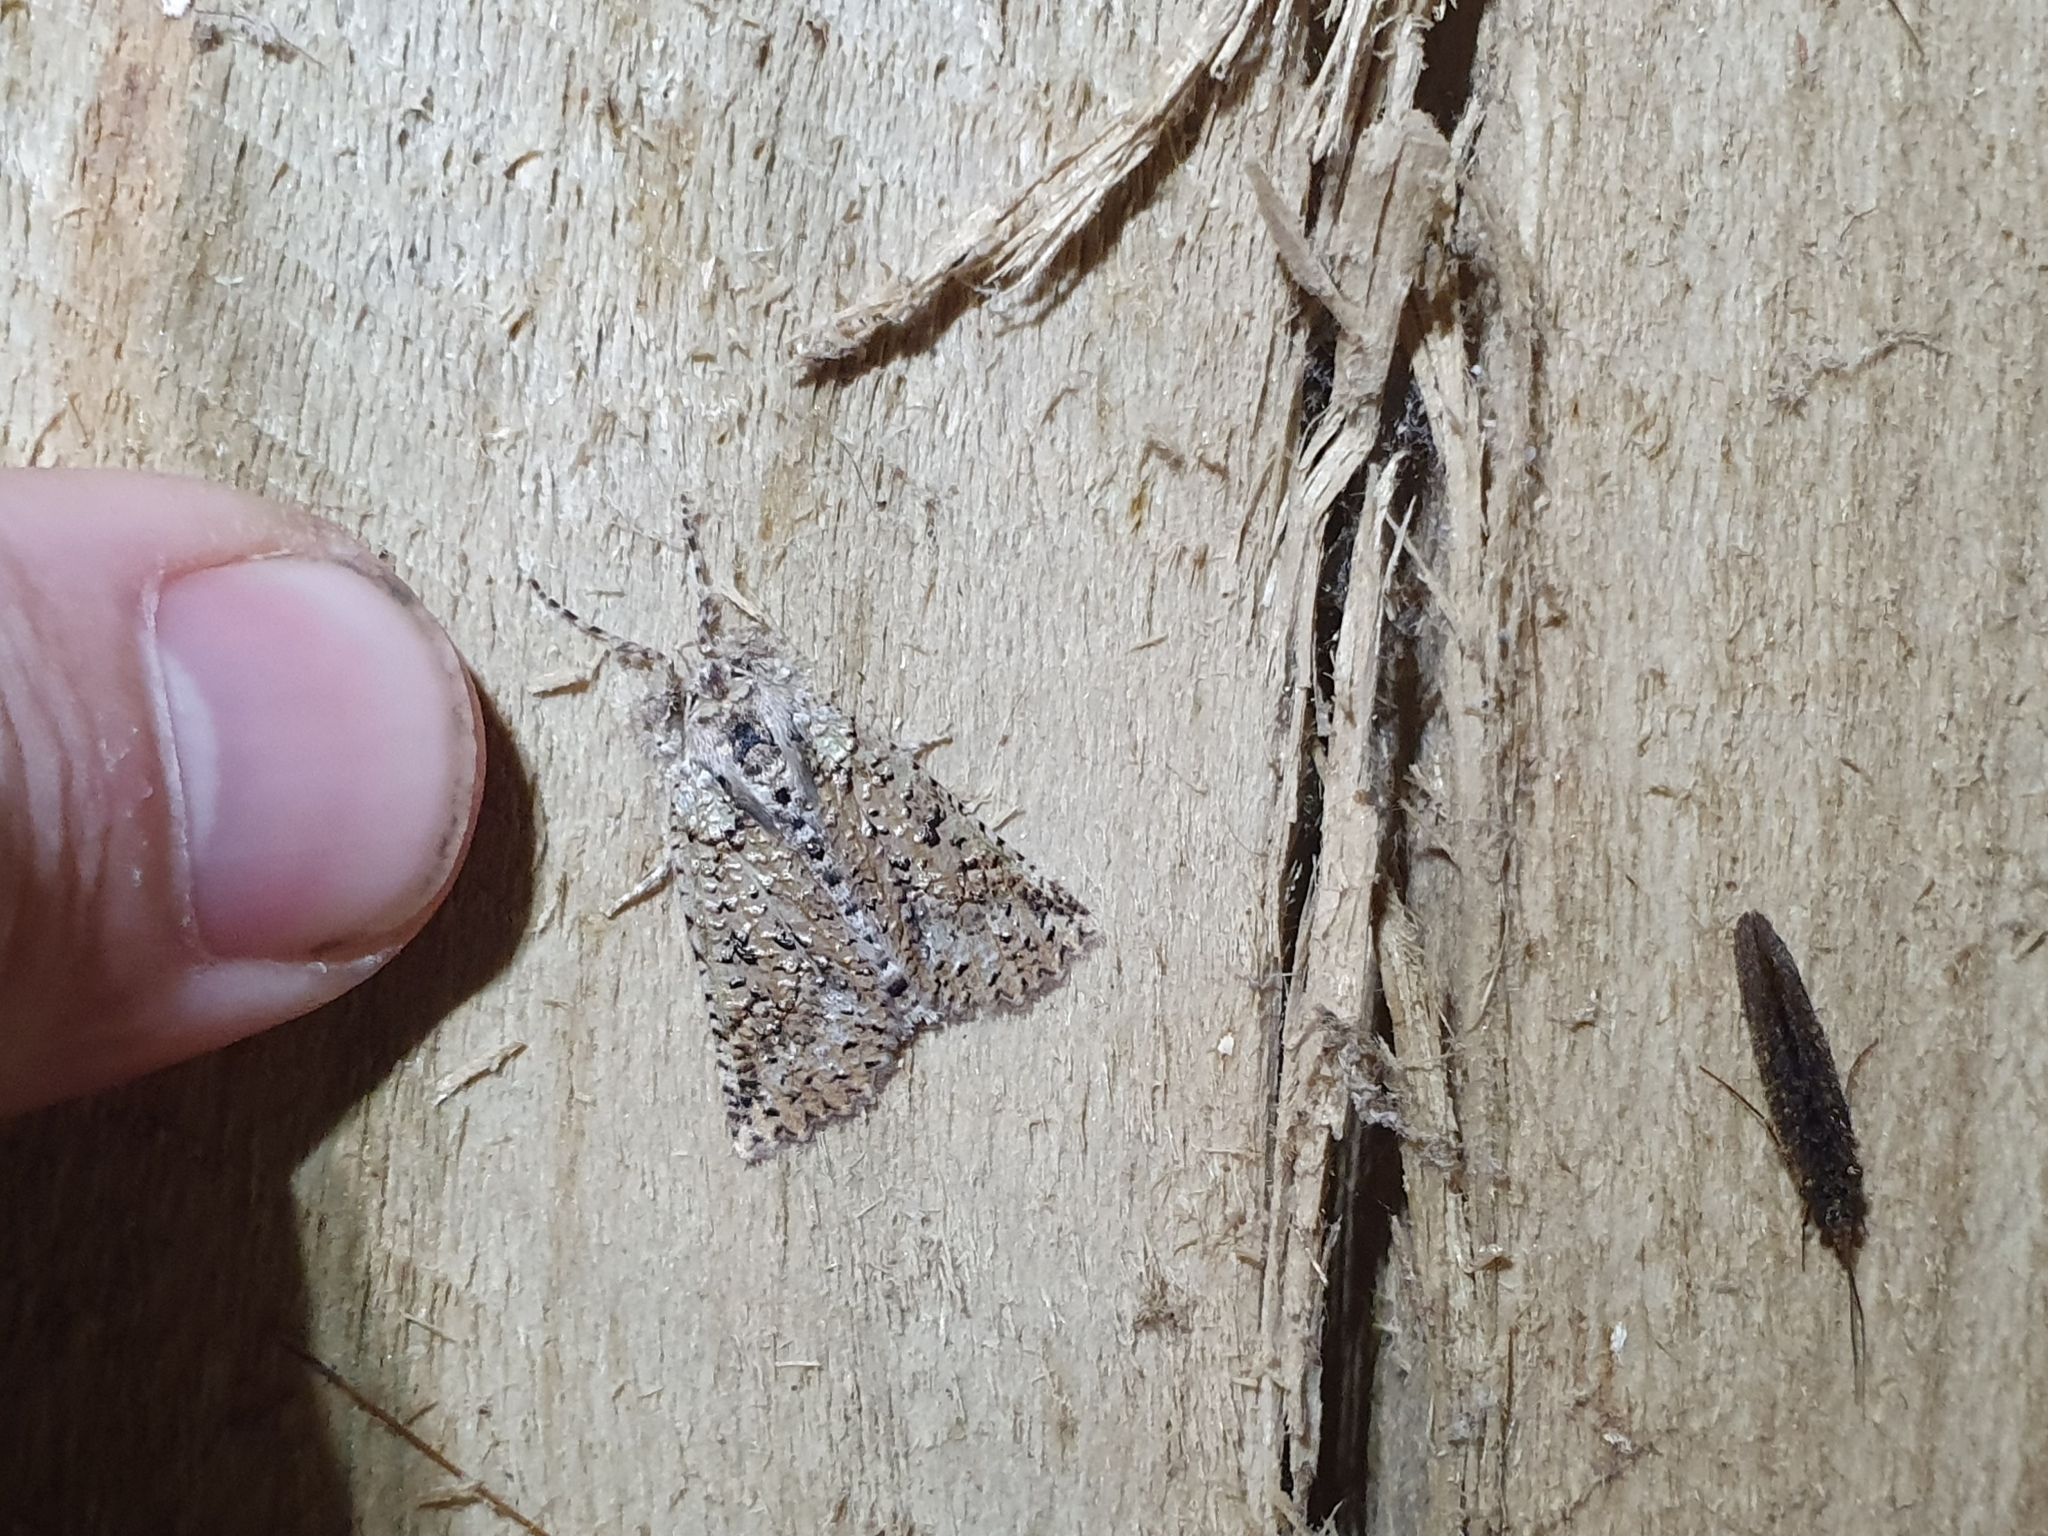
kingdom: Animalia
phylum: Arthropoda
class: Insecta
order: Lepidoptera
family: Geometridae
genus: Declana
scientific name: Declana floccosa
